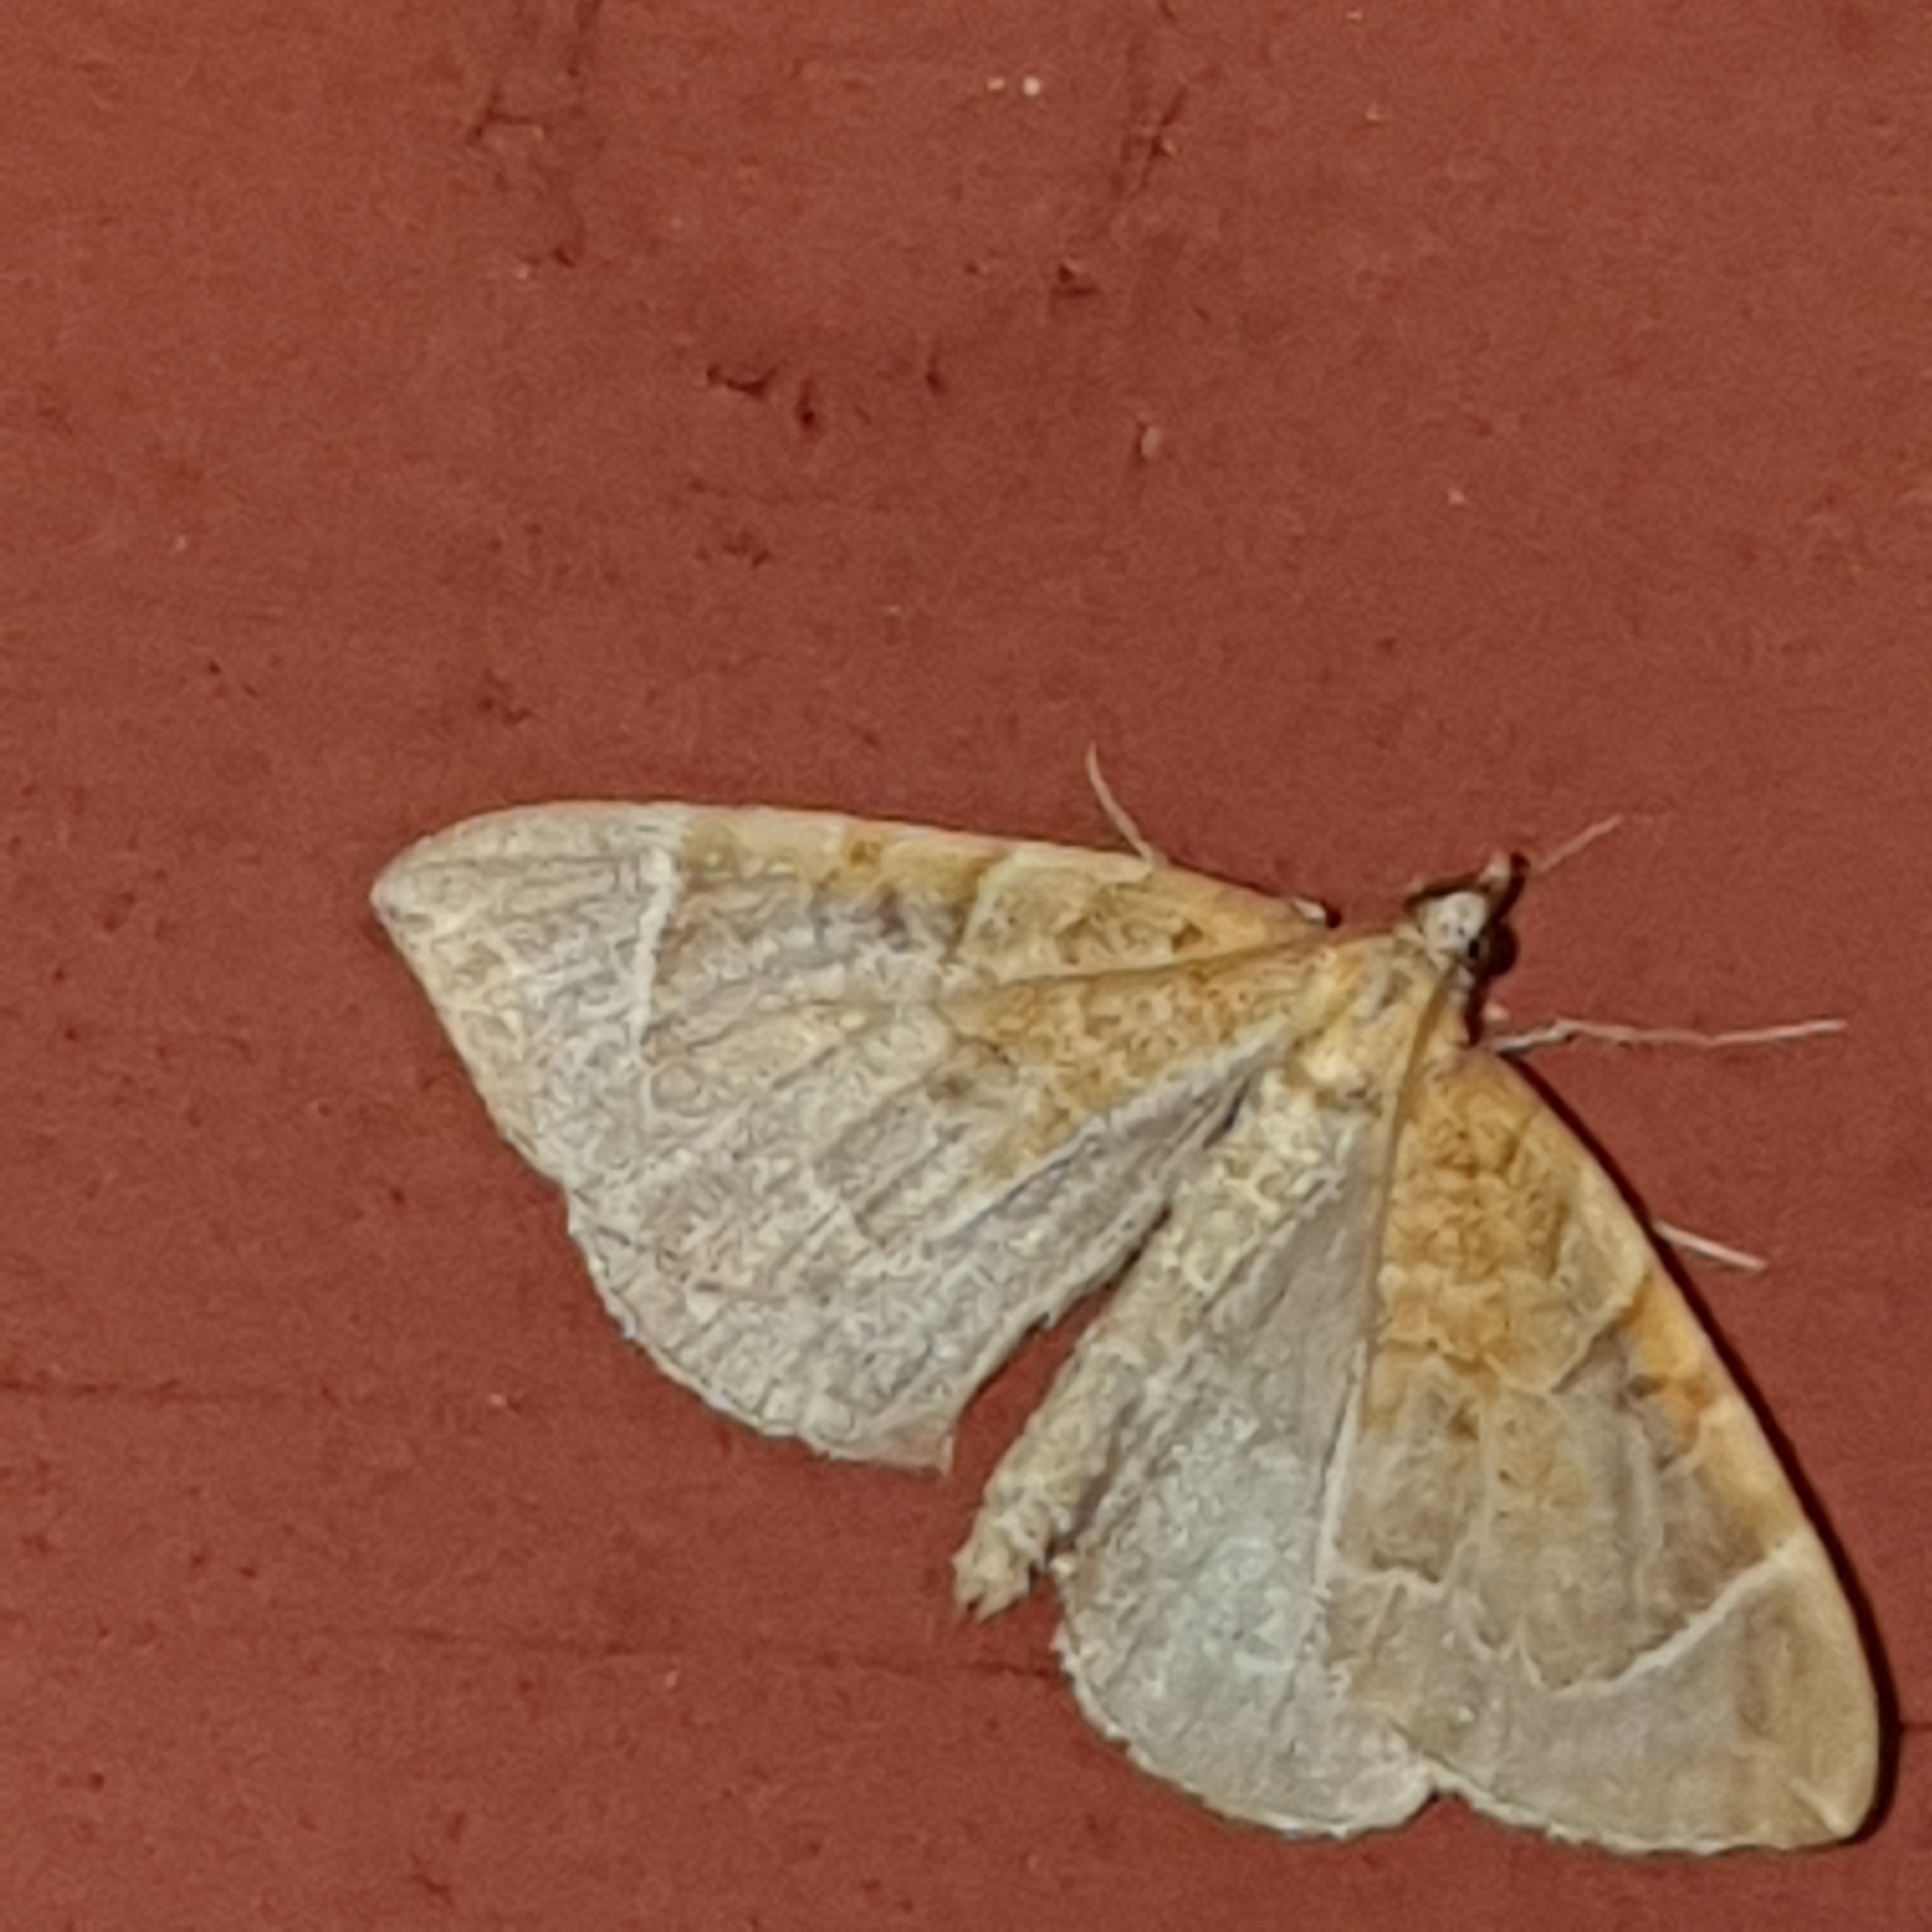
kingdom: Animalia
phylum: Arthropoda
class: Insecta
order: Lepidoptera
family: Geometridae
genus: Eulithis
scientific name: Eulithis testata
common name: Chevron
